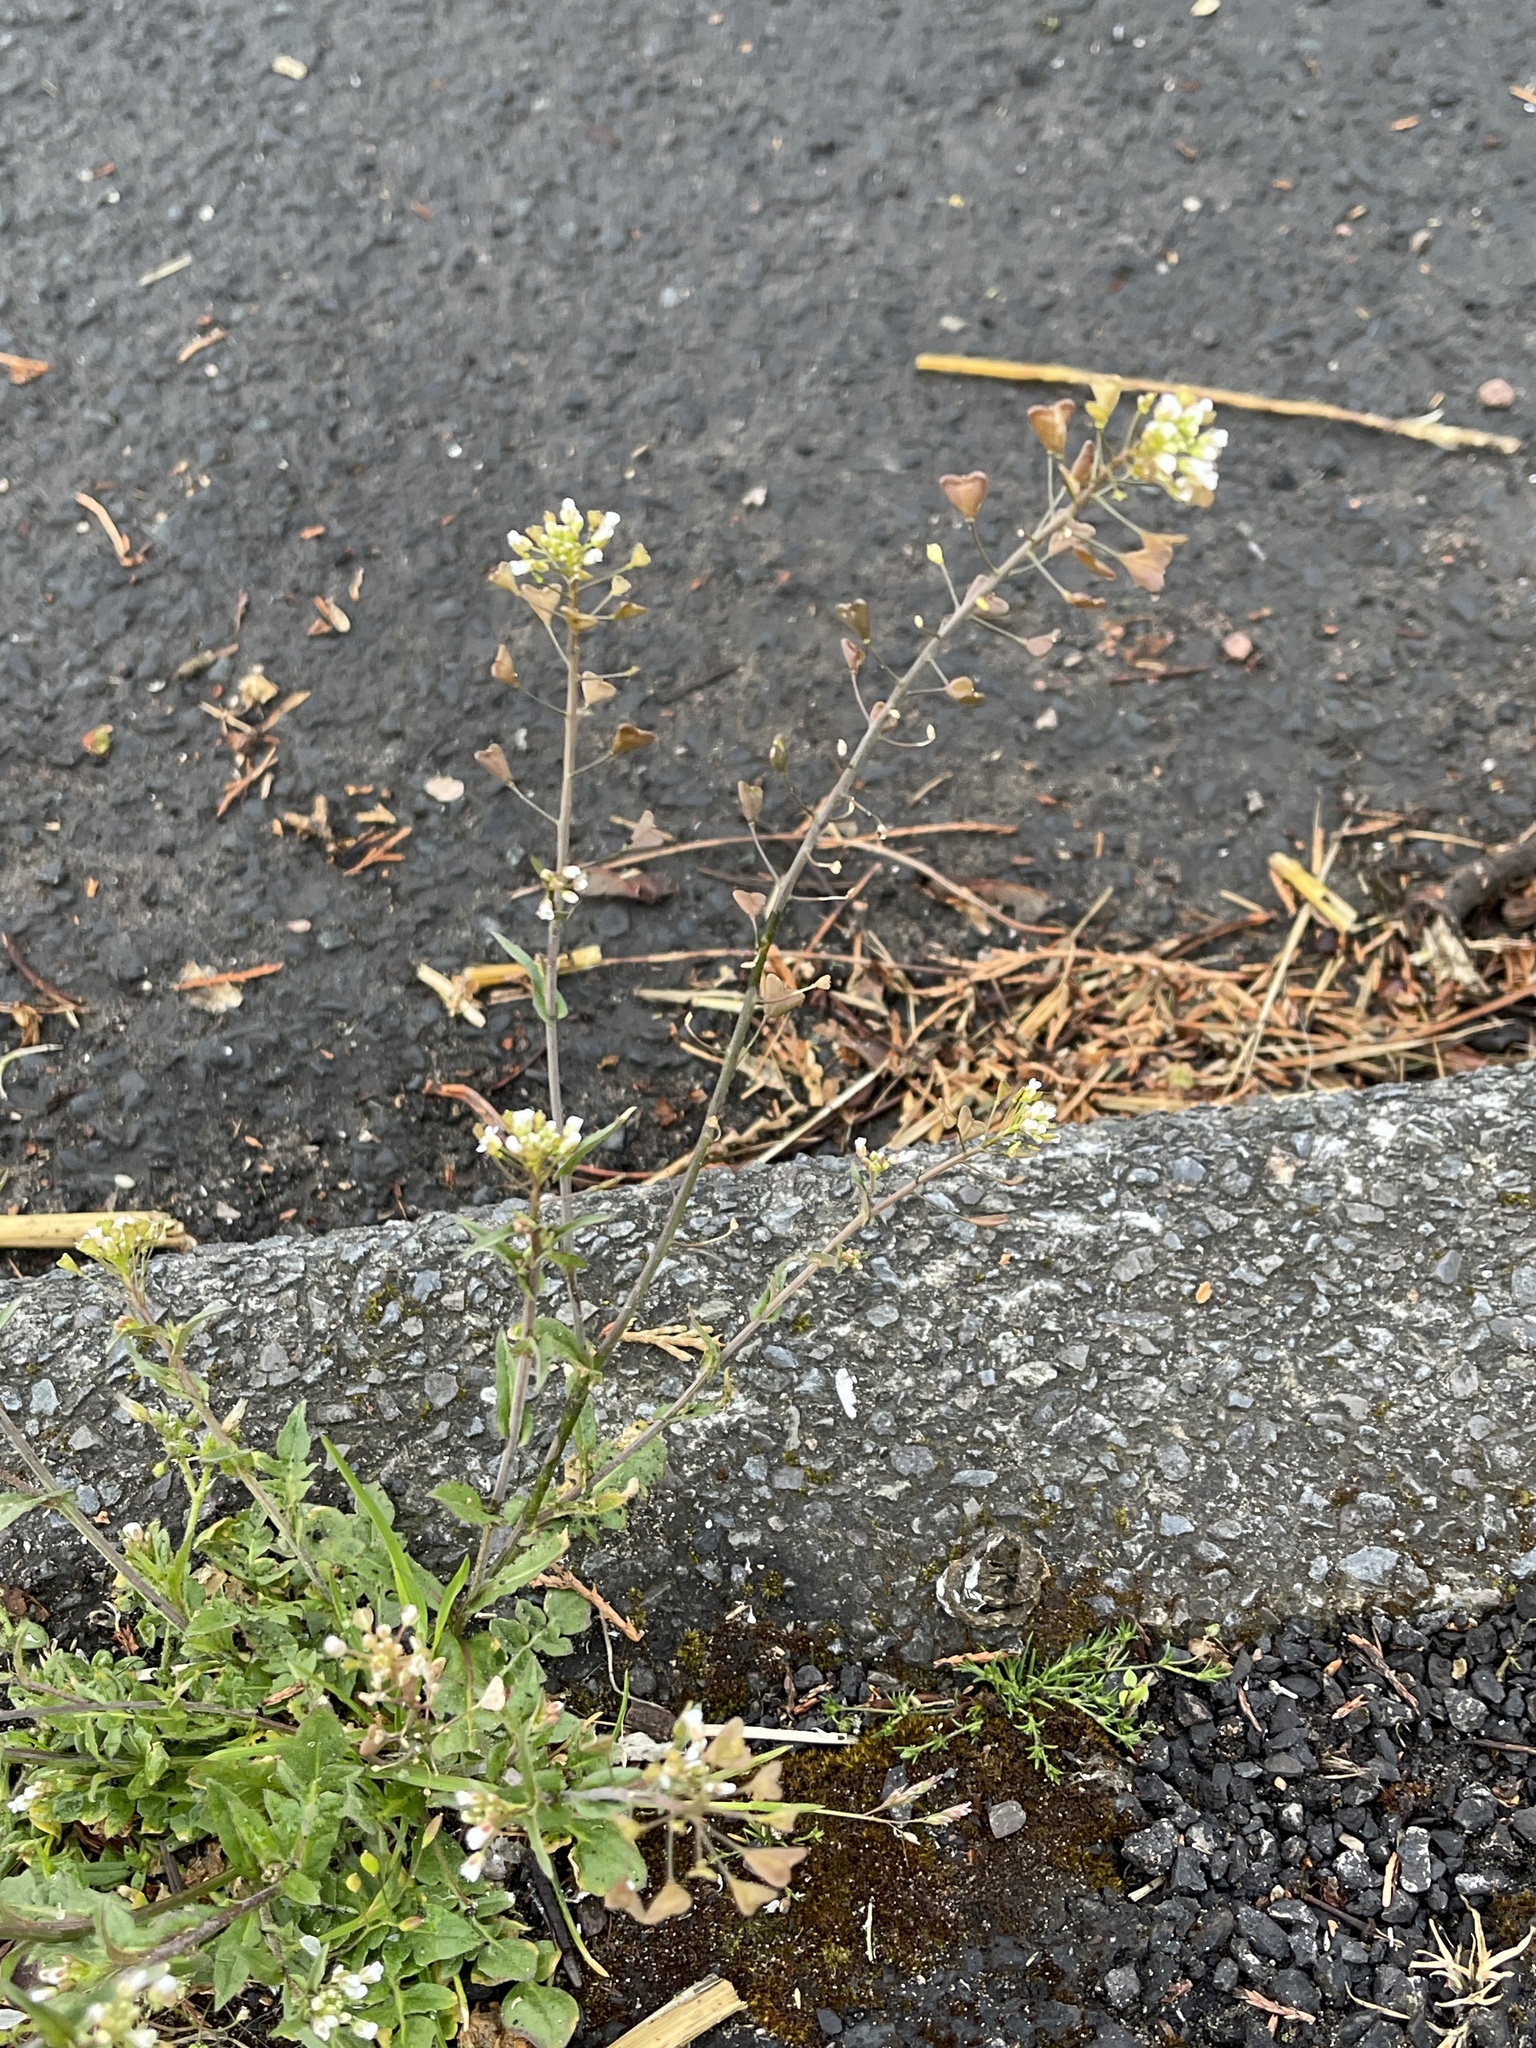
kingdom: Plantae
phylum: Tracheophyta
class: Magnoliopsida
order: Brassicales
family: Brassicaceae
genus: Capsella
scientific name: Capsella bursa-pastoris
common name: Shepherd's purse
